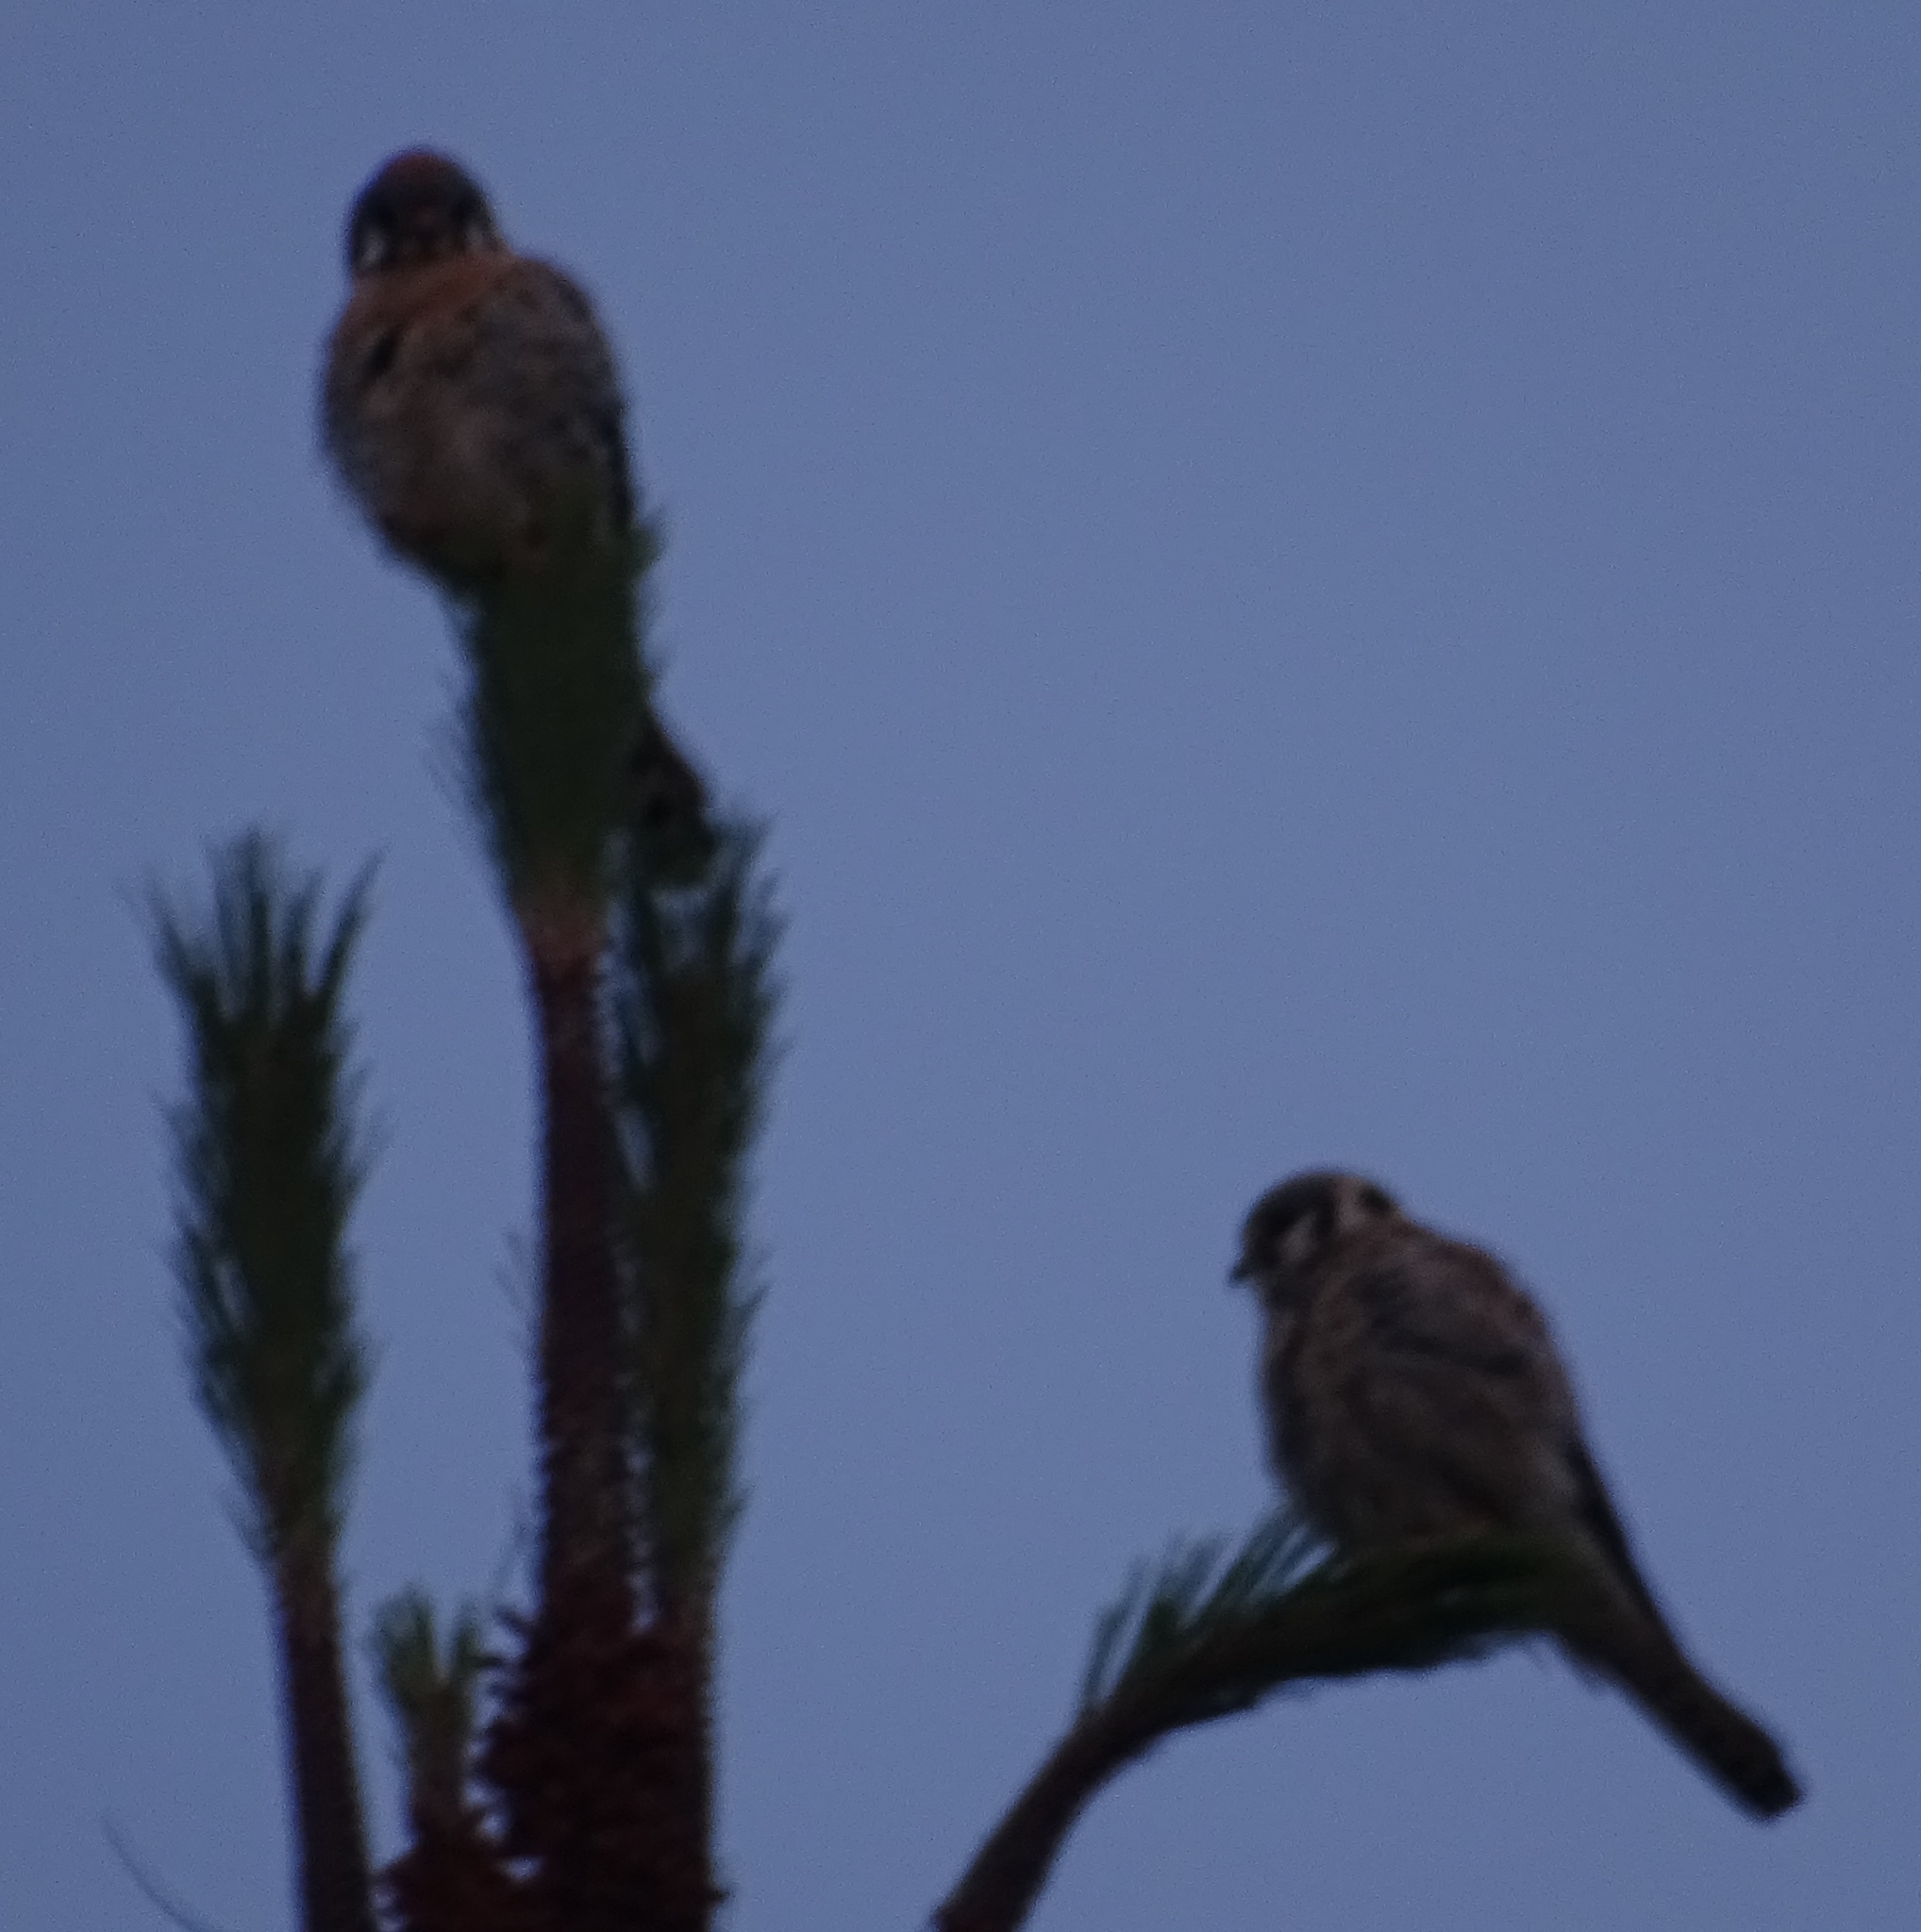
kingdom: Animalia
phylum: Chordata
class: Aves
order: Falconiformes
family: Falconidae
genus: Falco
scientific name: Falco sparverius
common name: American kestrel
